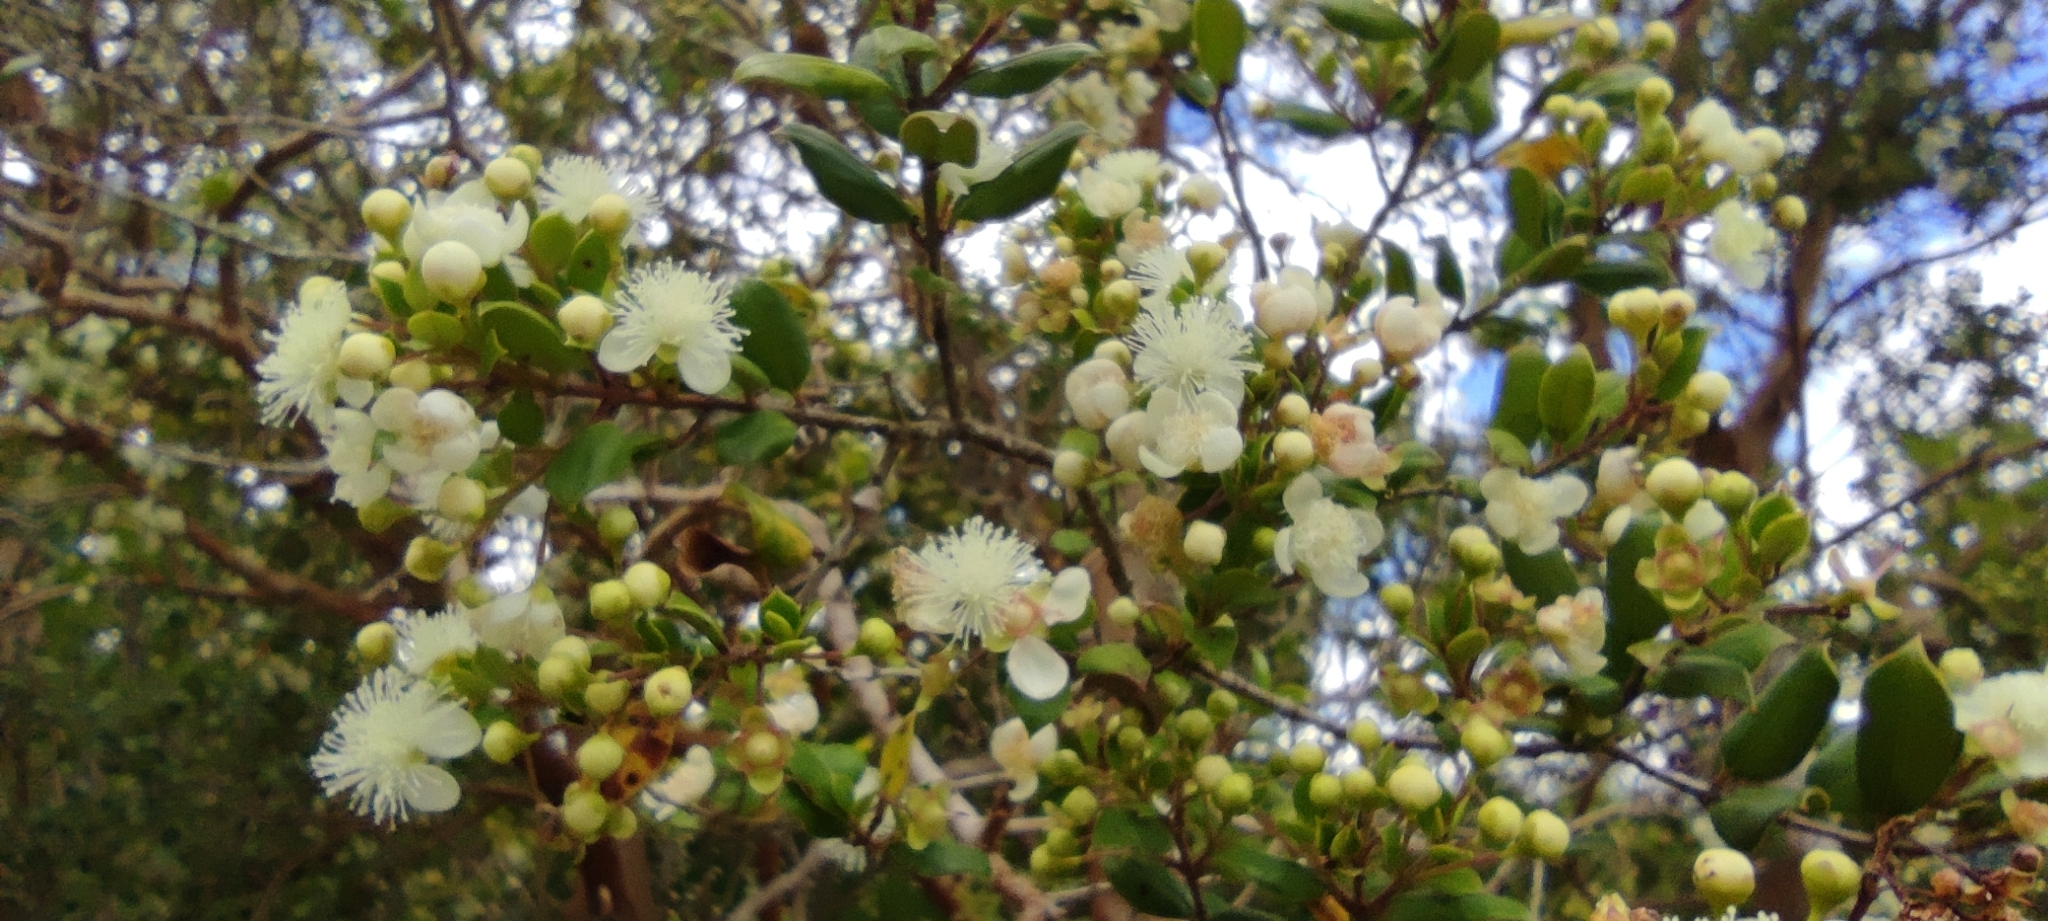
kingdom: Plantae
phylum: Tracheophyta
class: Magnoliopsida
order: Myrtales
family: Myrtaceae
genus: Luma
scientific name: Luma apiculata
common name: Chilean myrtle
